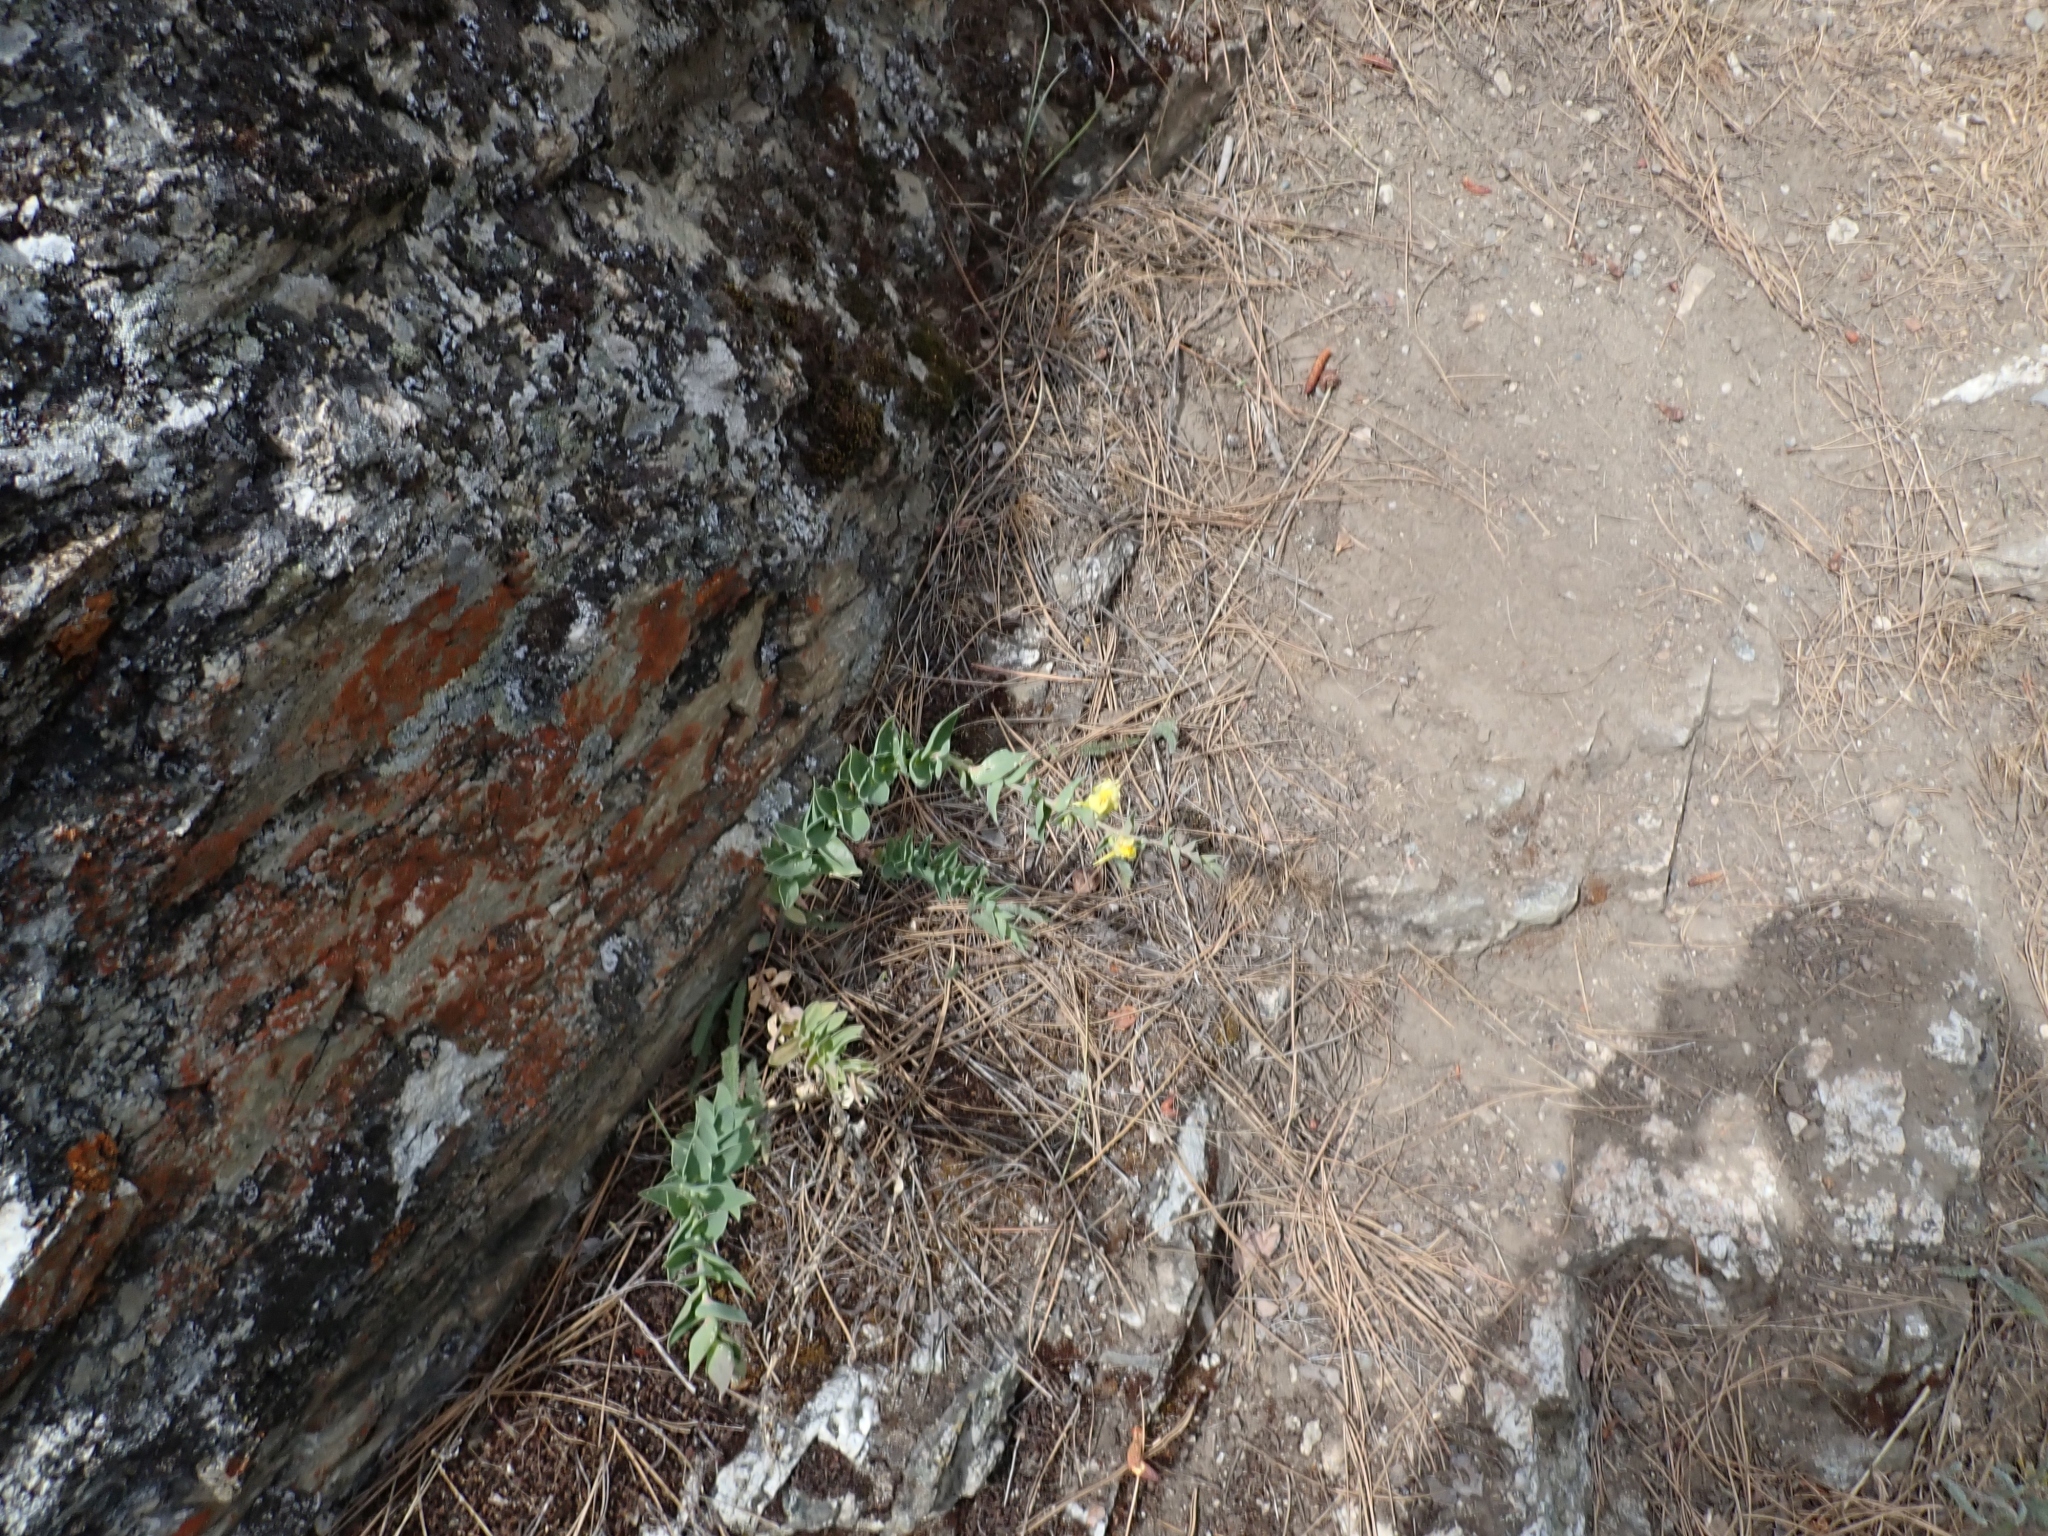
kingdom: Plantae
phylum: Tracheophyta
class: Magnoliopsida
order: Lamiales
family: Plantaginaceae
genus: Linaria
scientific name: Linaria dalmatica
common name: Dalmatian toadflax
